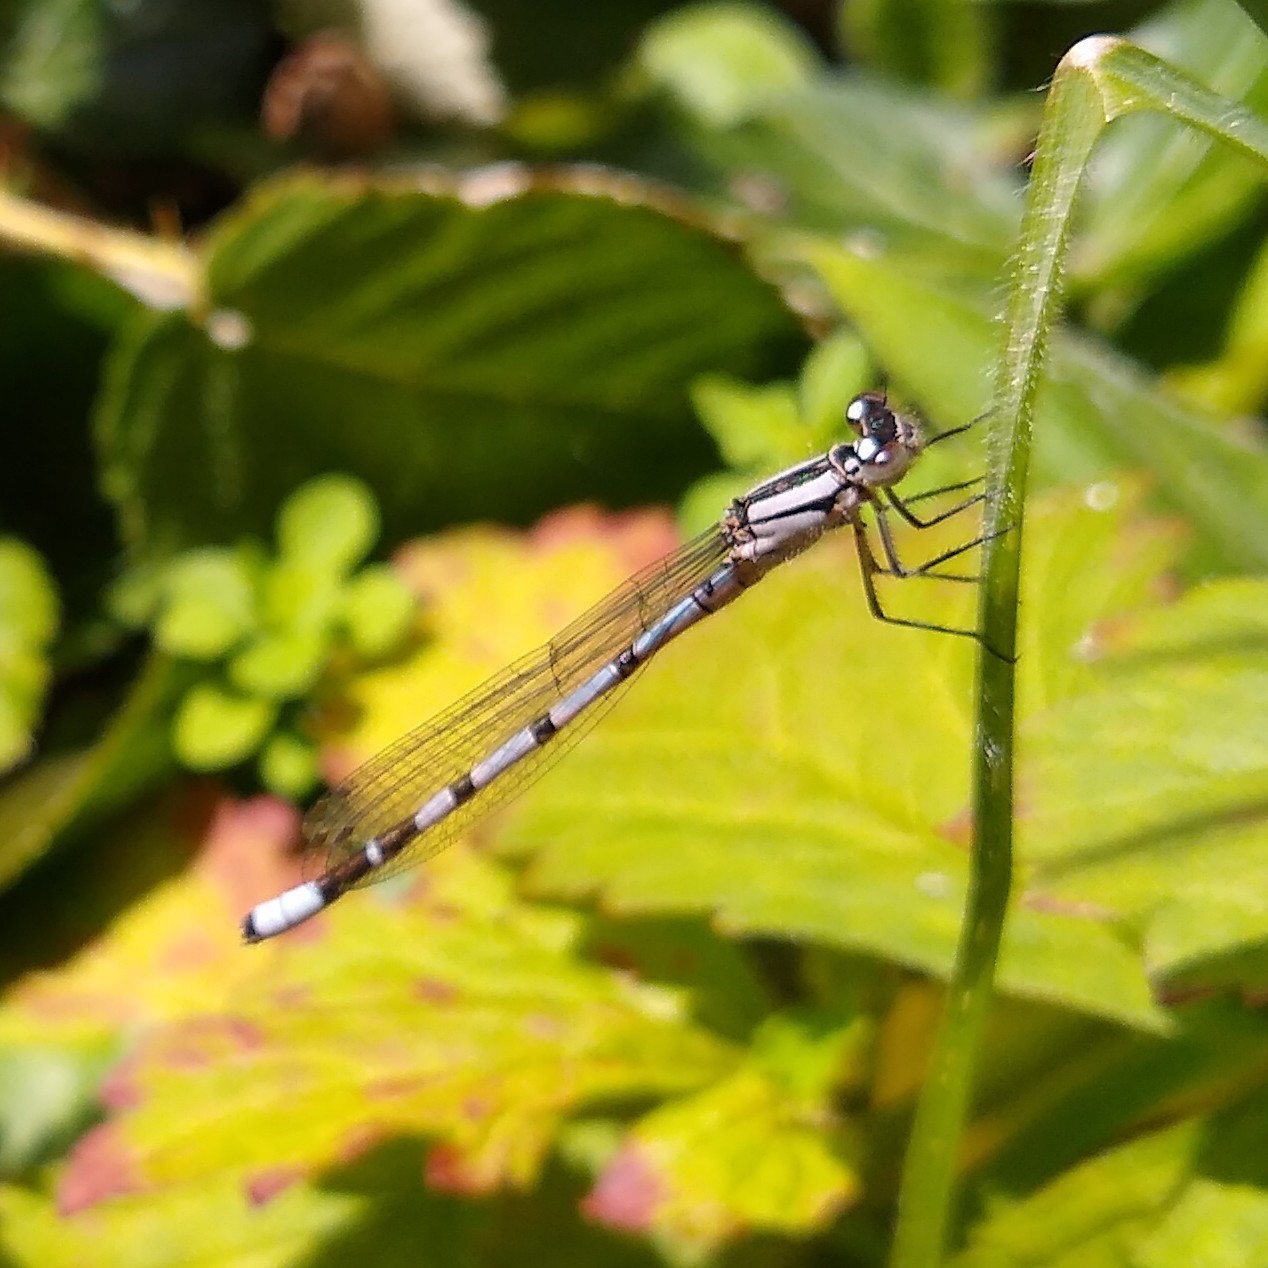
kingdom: Animalia
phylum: Arthropoda
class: Insecta
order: Odonata
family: Coenagrionidae
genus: Enallagma
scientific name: Enallagma cyathigerum
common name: Common blue damselfly
